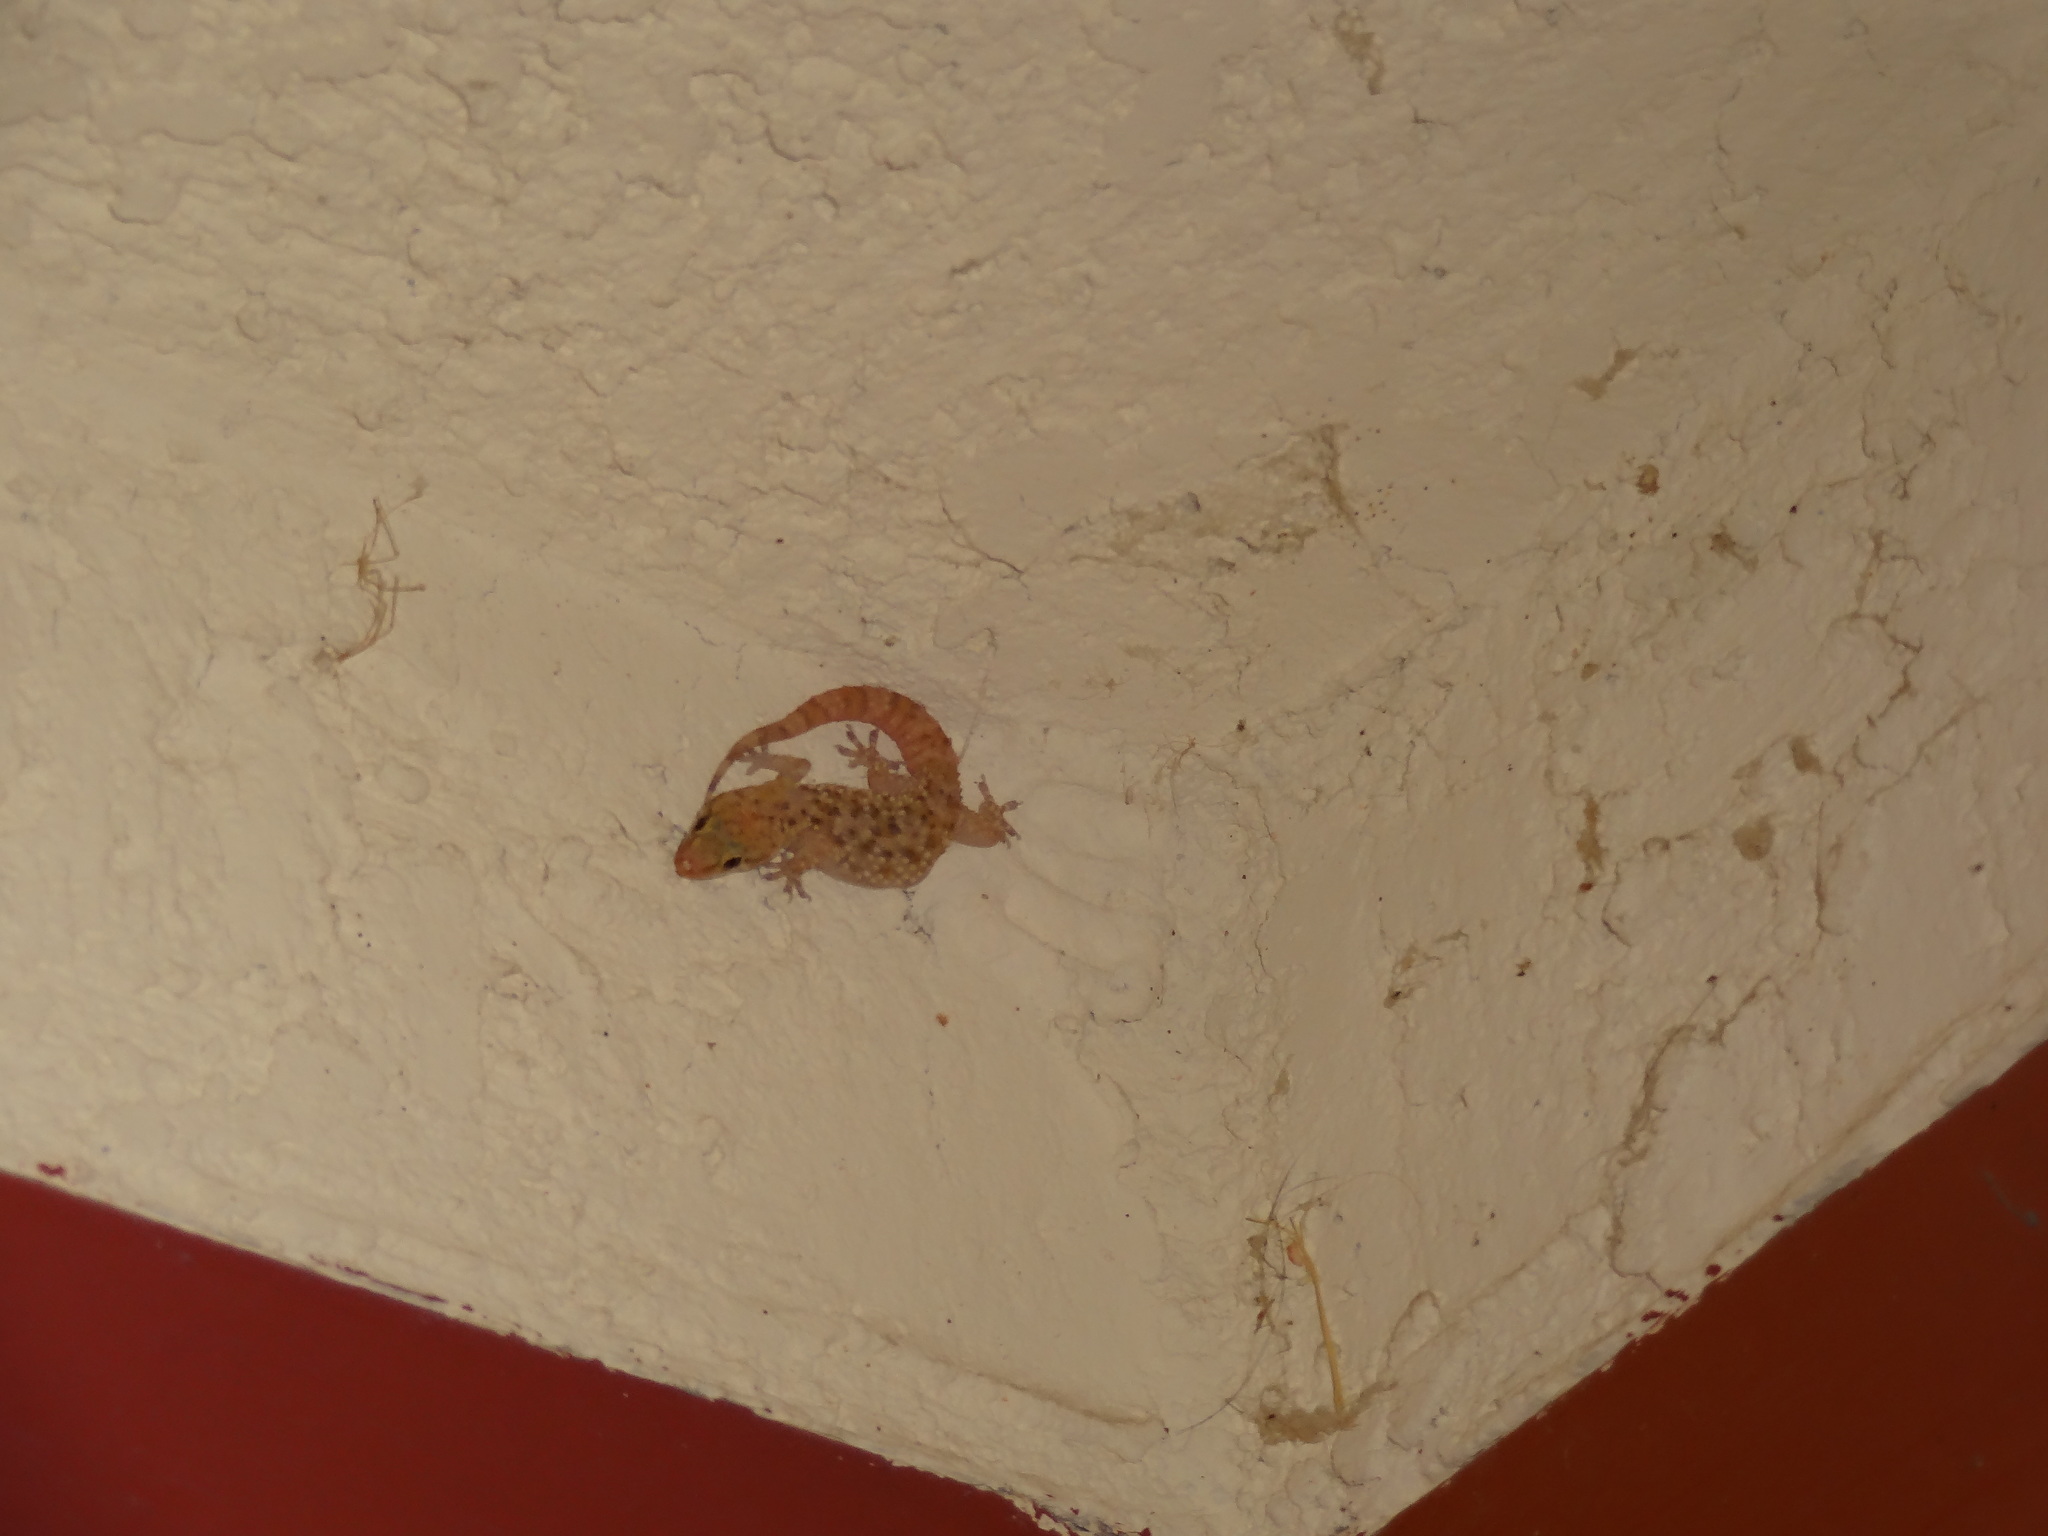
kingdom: Animalia
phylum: Chordata
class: Squamata
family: Gekkonidae
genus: Hemidactylus
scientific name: Hemidactylus turcicus
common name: Turkish gecko
